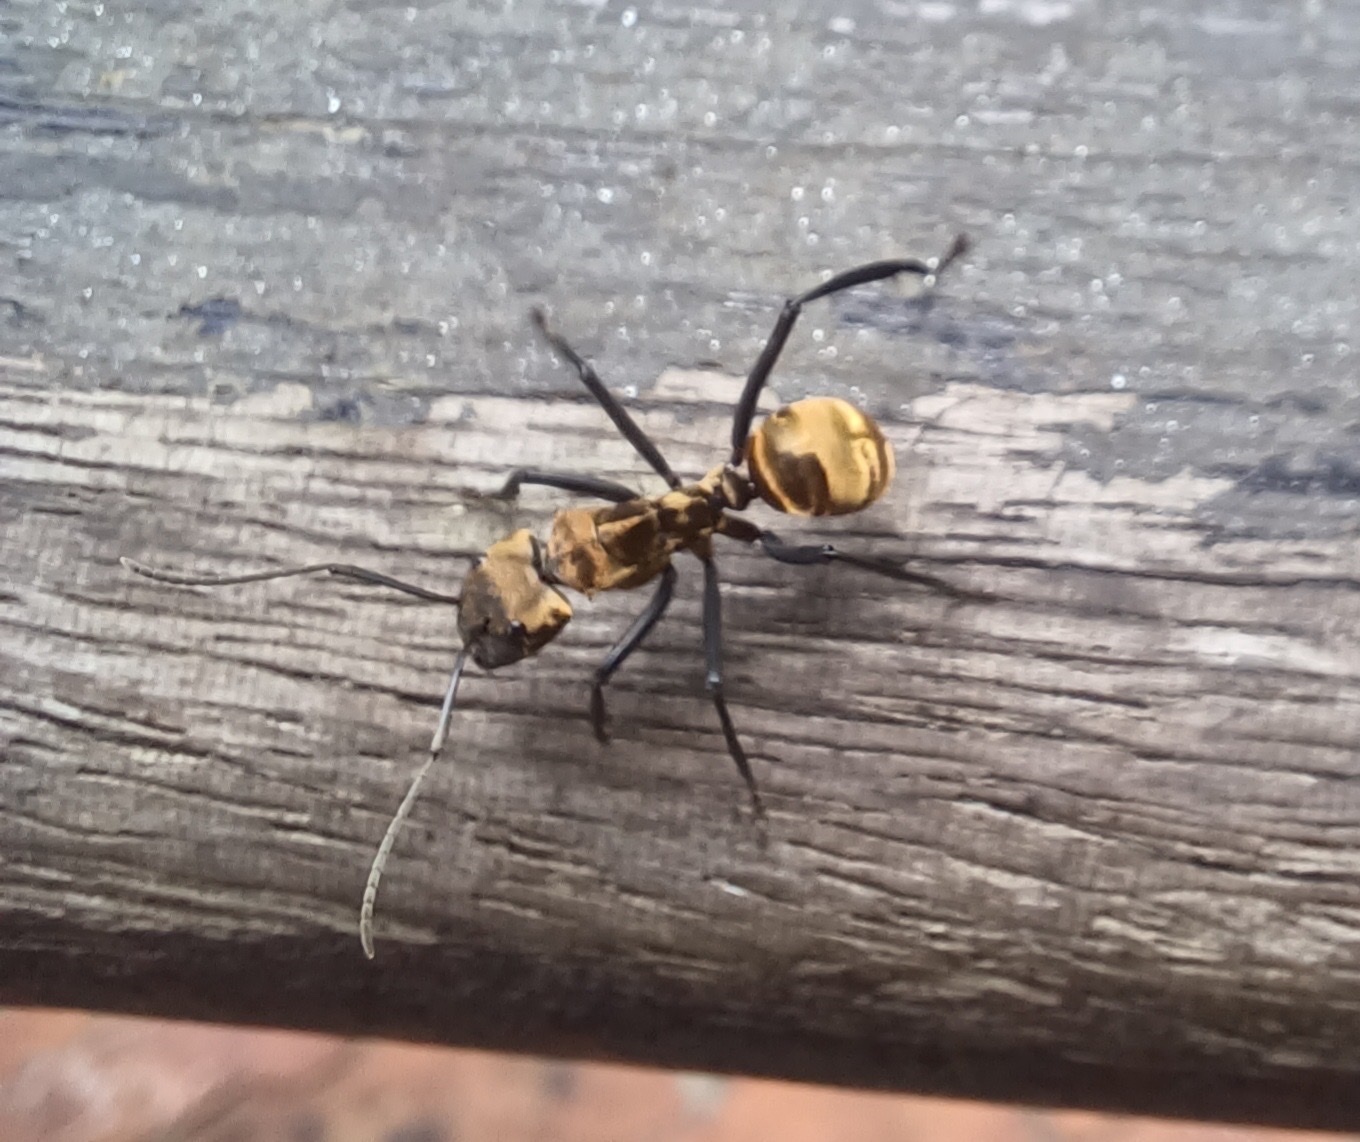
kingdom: Animalia
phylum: Arthropoda
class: Insecta
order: Hymenoptera
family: Formicidae
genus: Camponotus
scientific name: Camponotus sericeiventris
